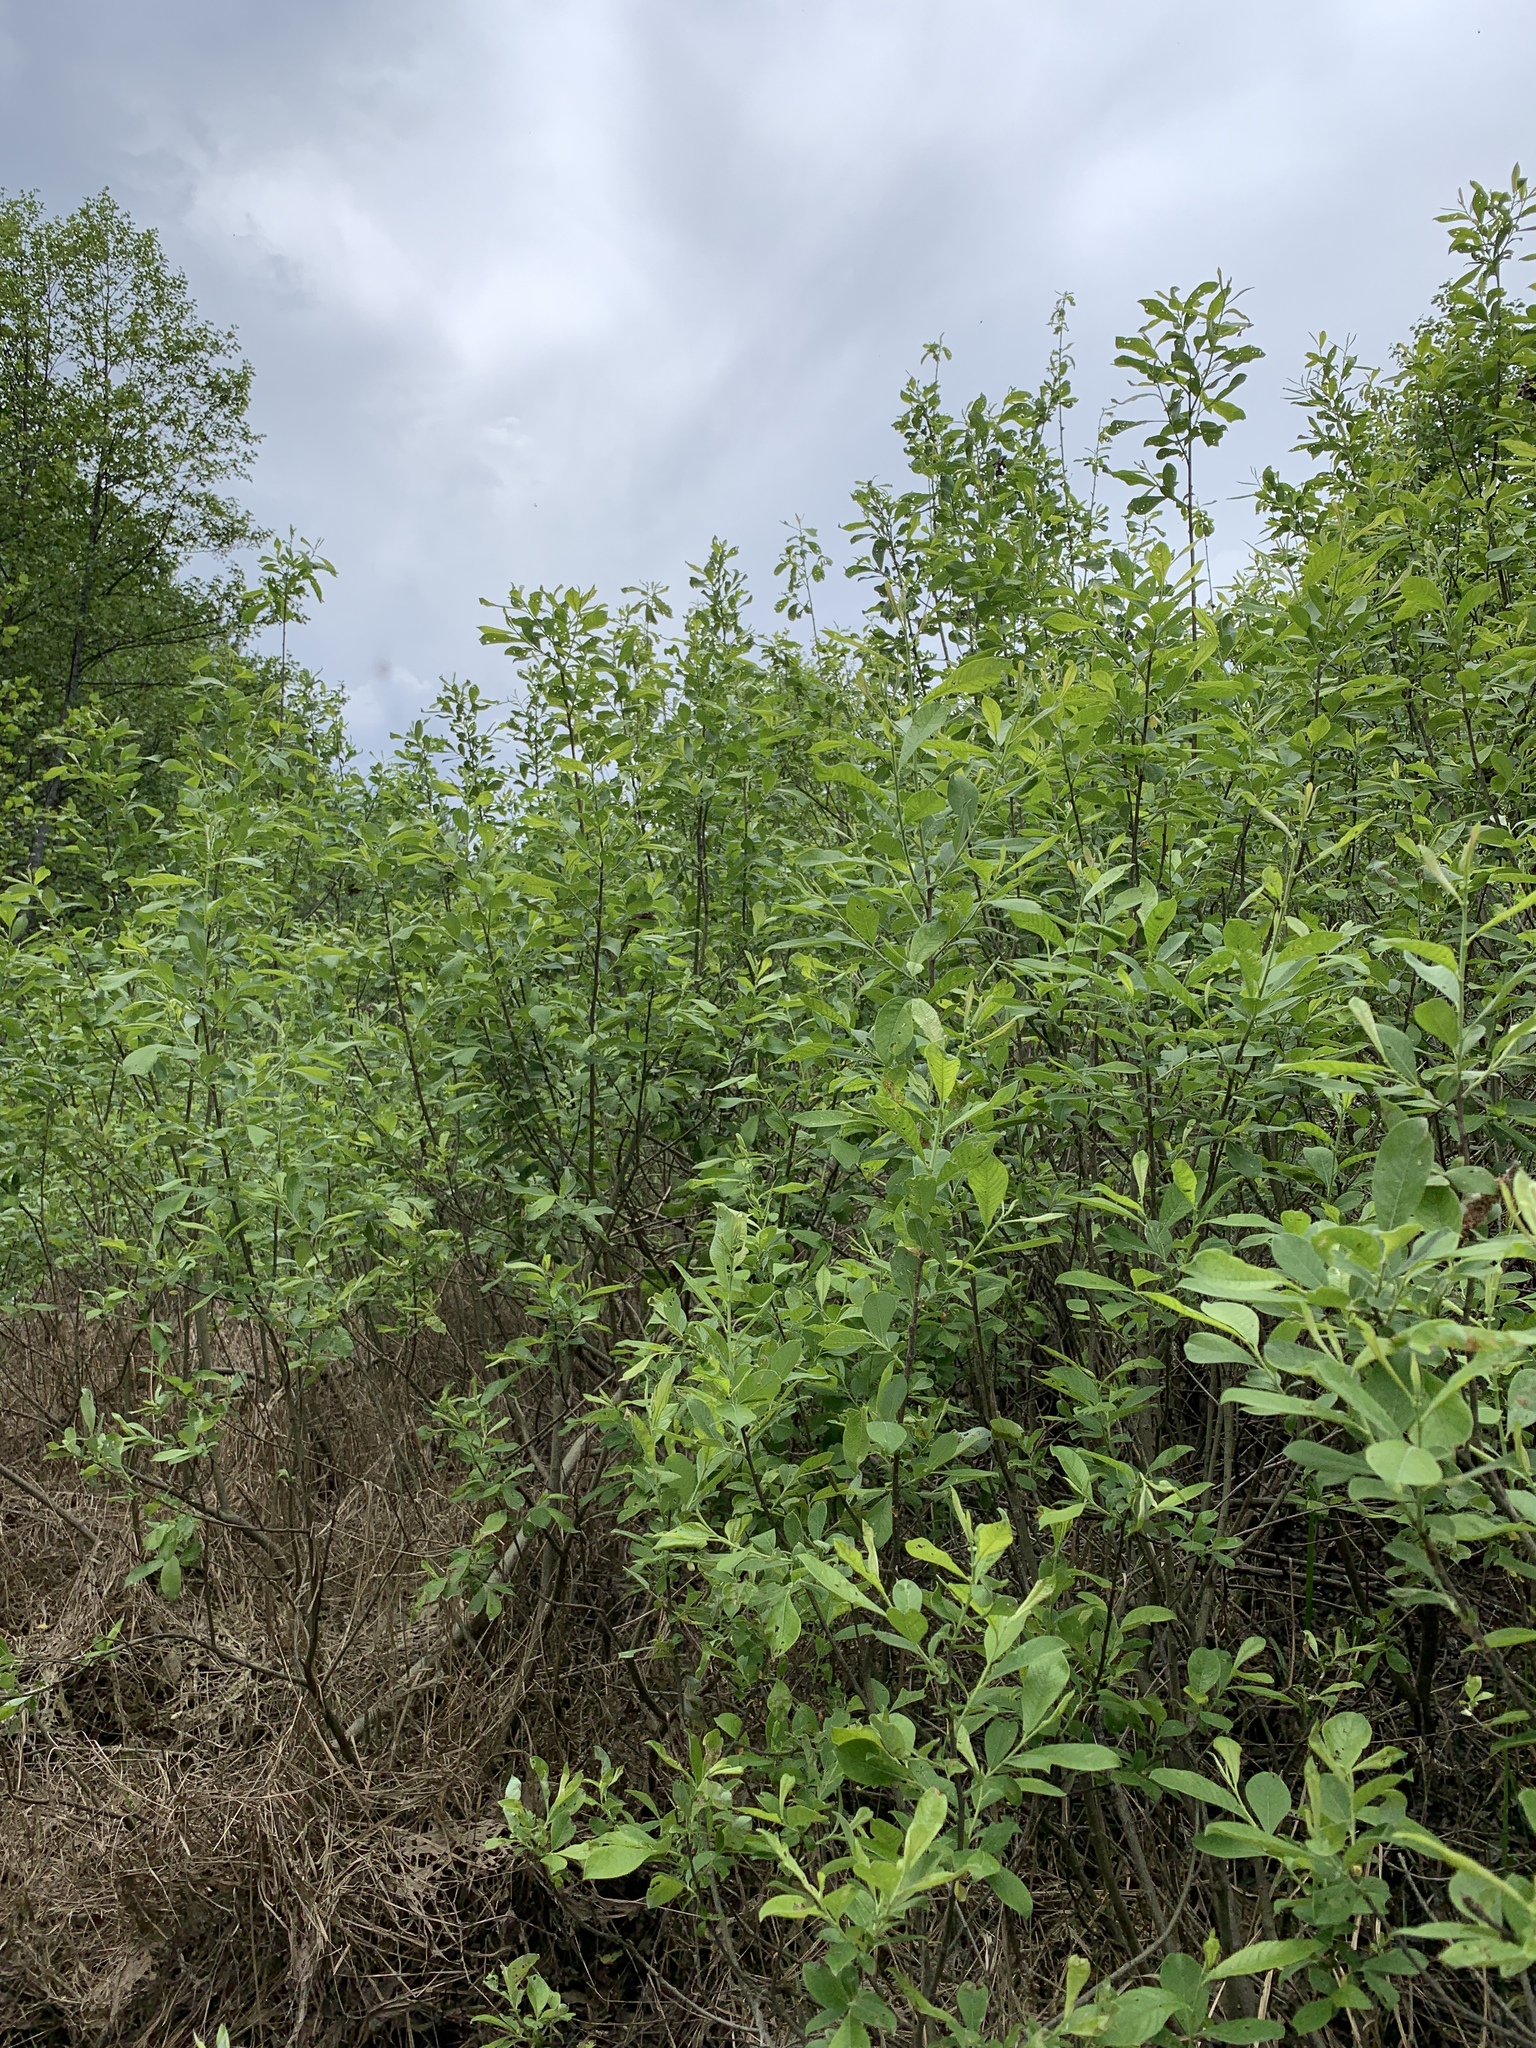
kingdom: Plantae
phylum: Tracheophyta
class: Magnoliopsida
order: Malpighiales
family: Salicaceae
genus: Salix
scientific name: Salix cinerea
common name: Common sallow
